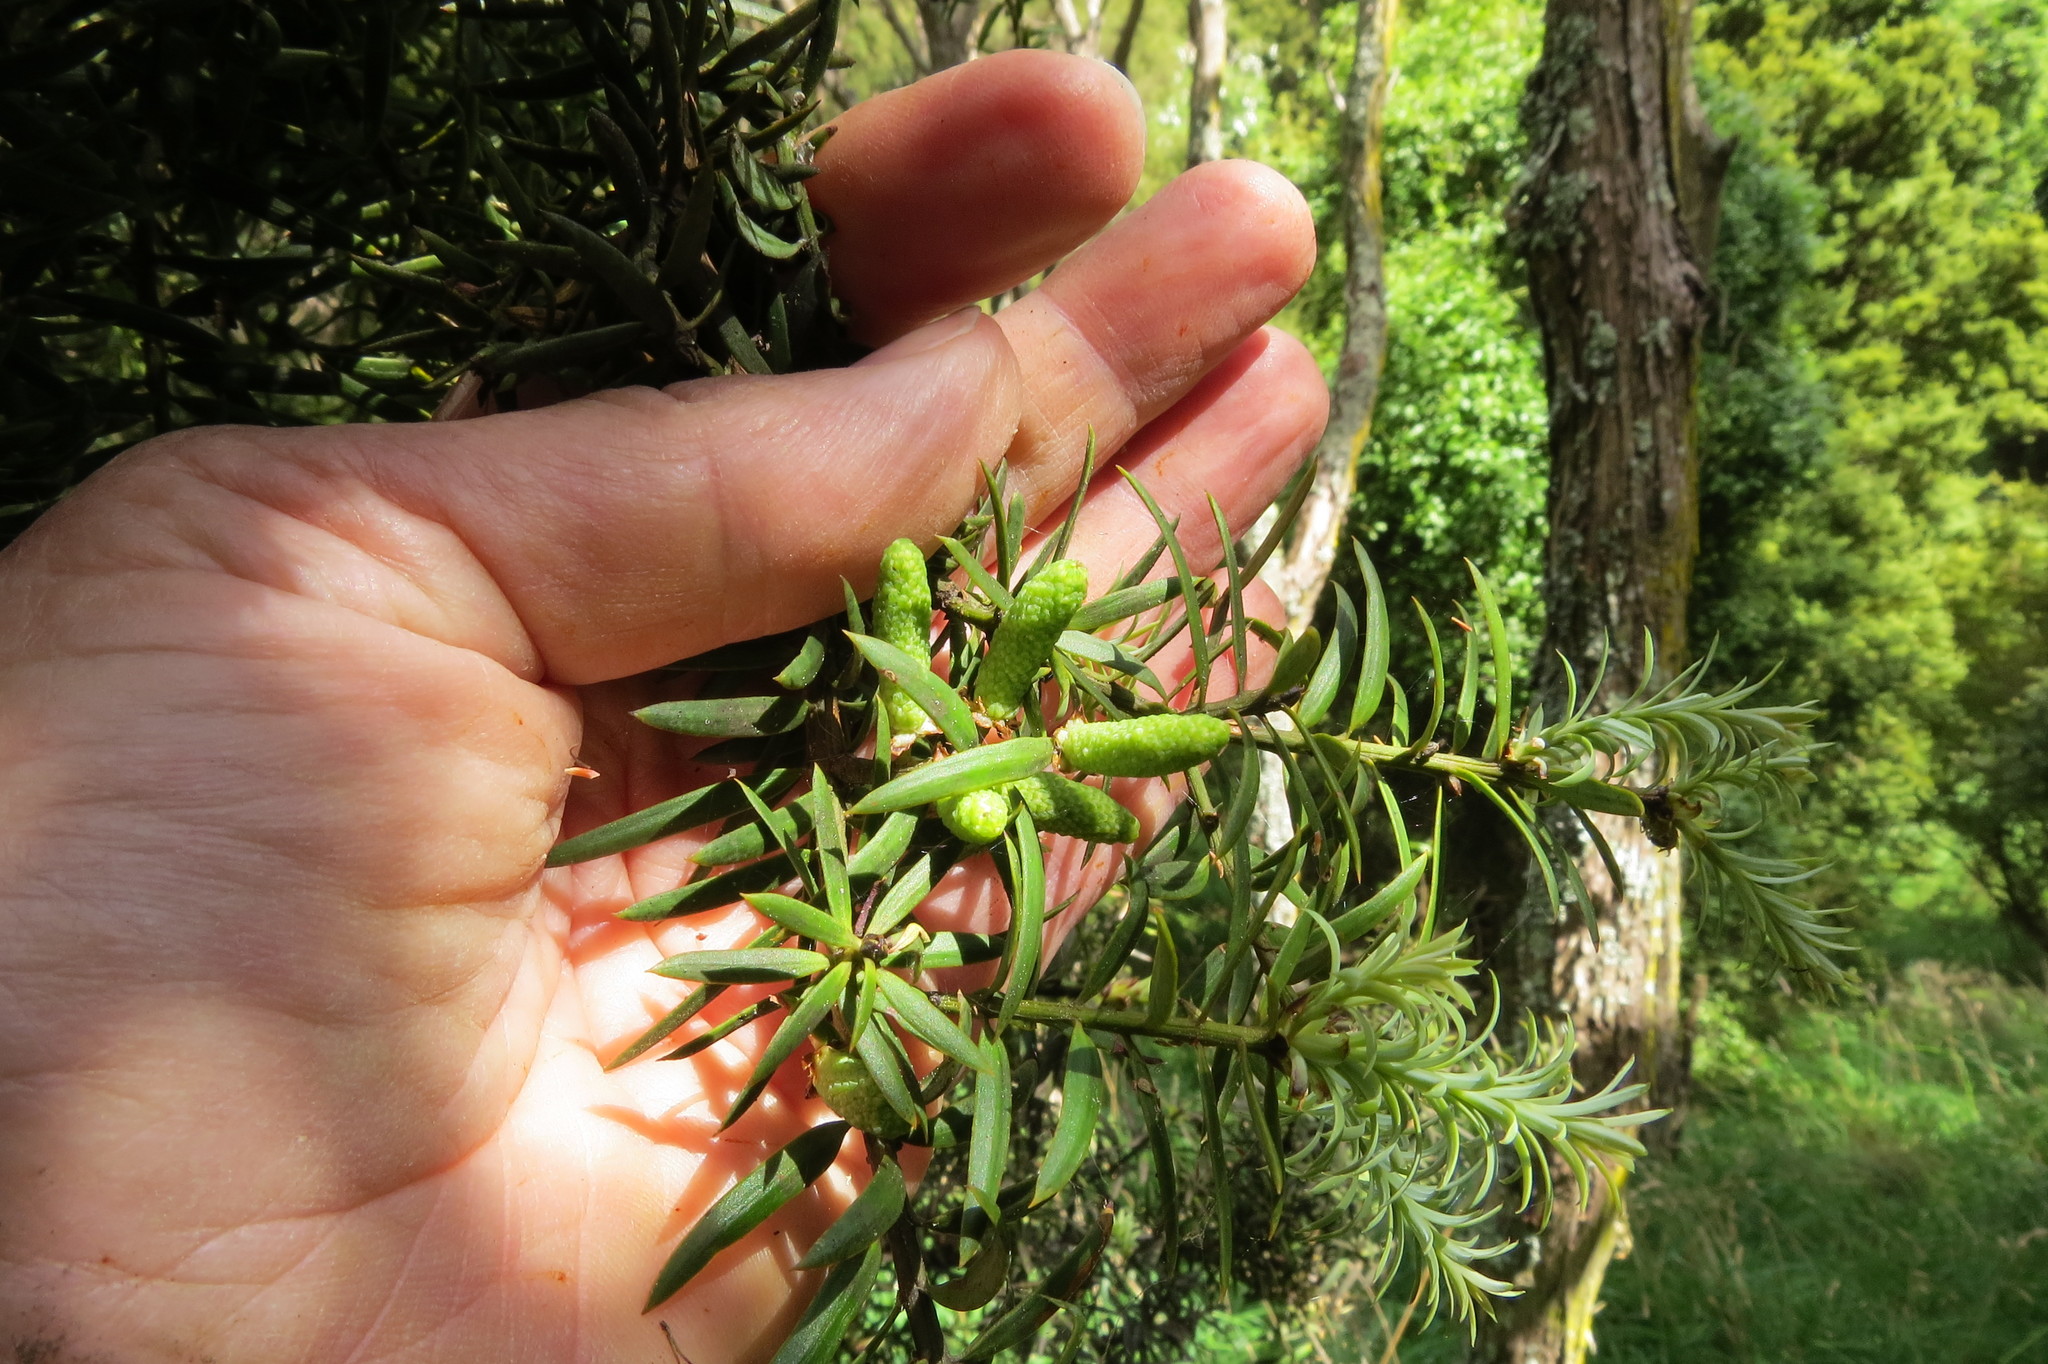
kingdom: Plantae
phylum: Tracheophyta
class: Pinopsida
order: Pinales
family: Podocarpaceae
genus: Podocarpus
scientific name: Podocarpus totara
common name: Totara
